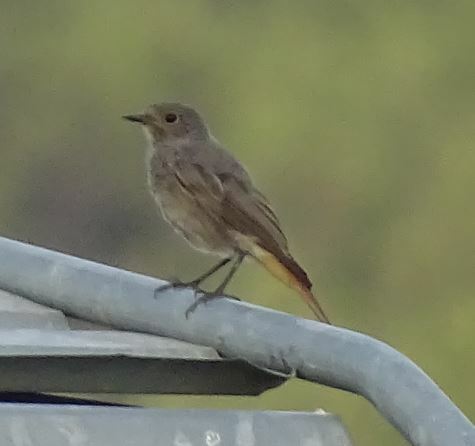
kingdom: Animalia
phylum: Chordata
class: Aves
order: Passeriformes
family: Muscicapidae
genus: Phoenicurus
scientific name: Phoenicurus ochruros
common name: Black redstart
